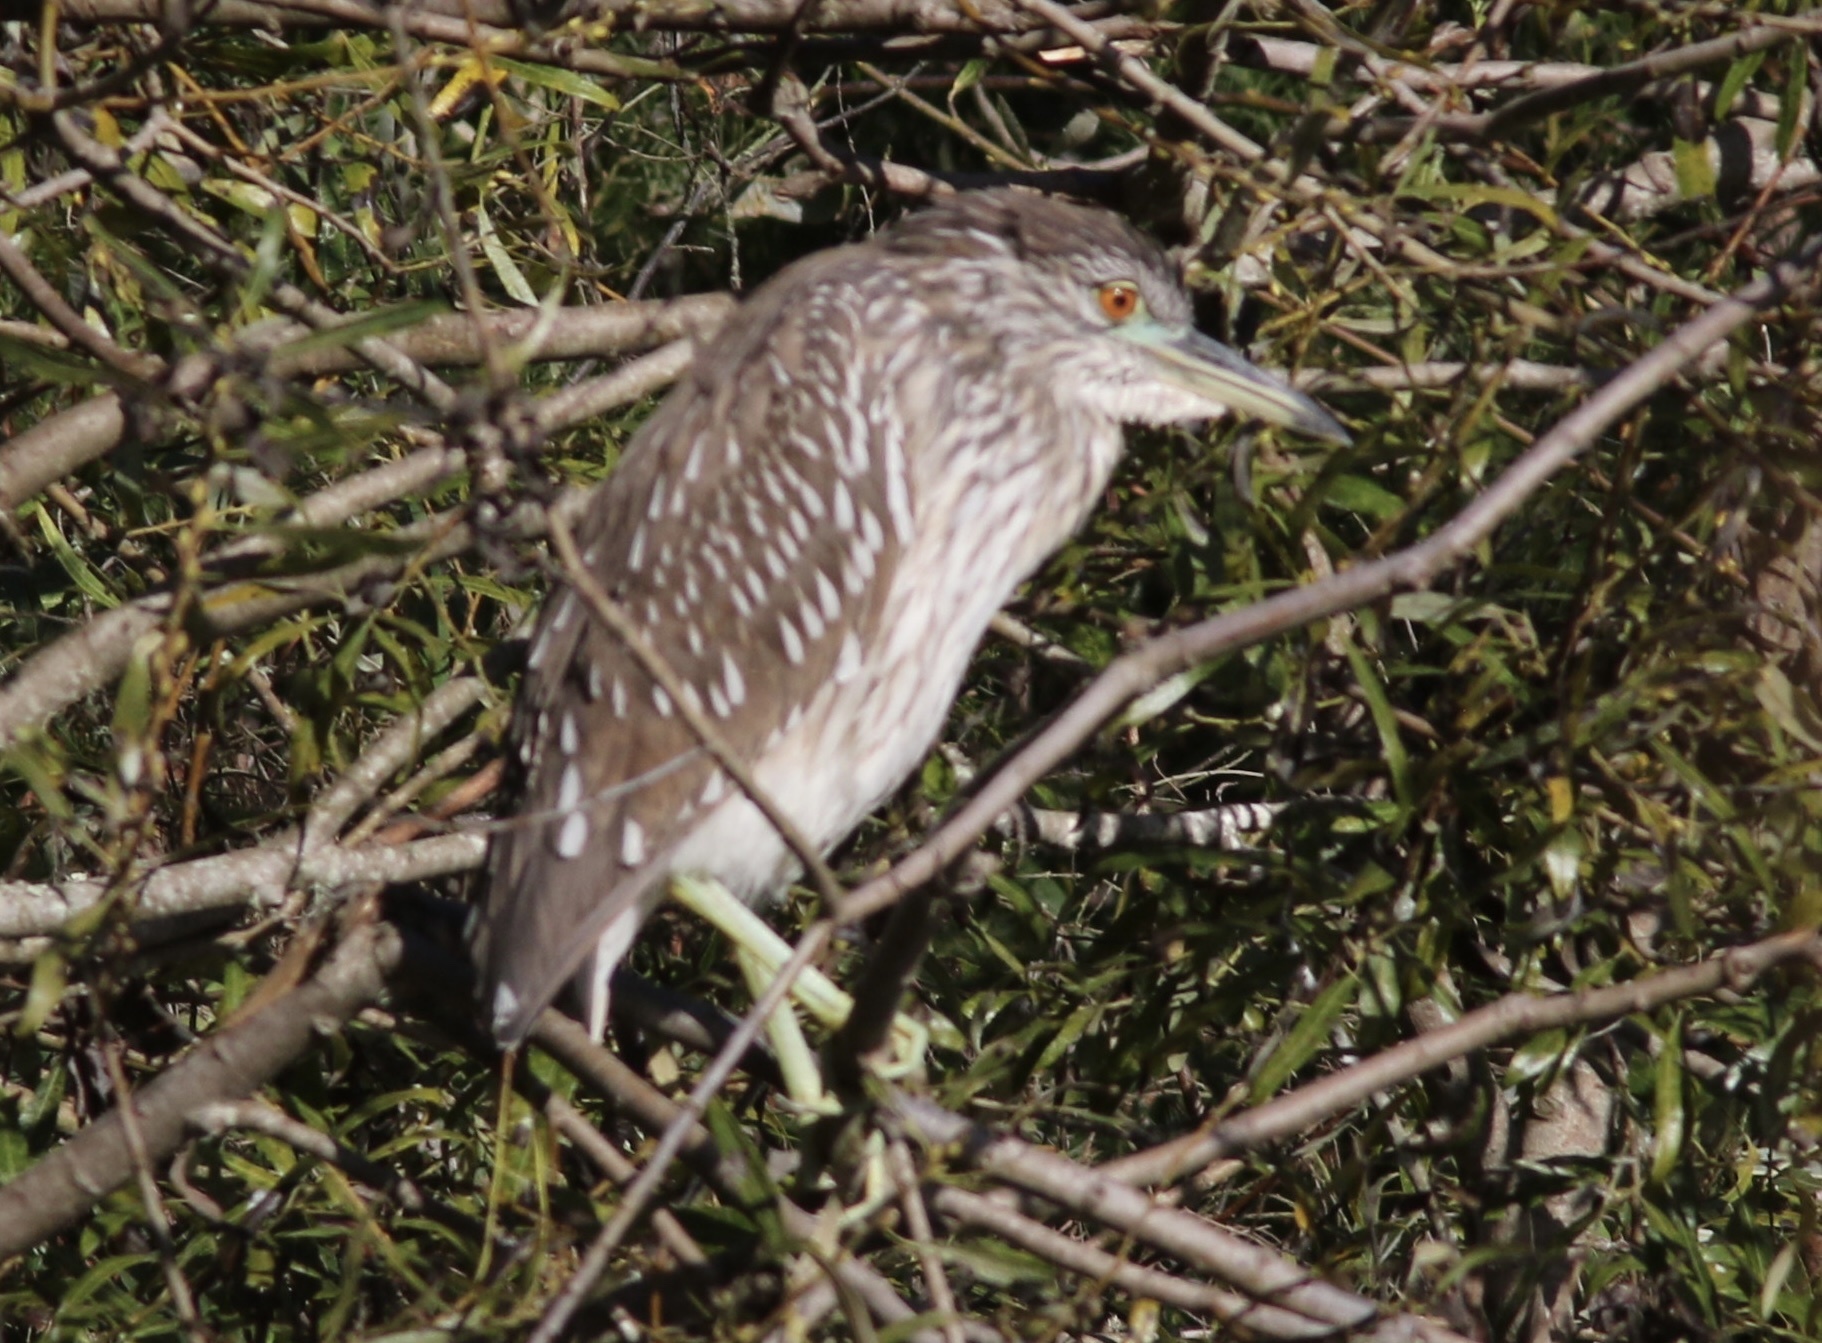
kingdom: Animalia
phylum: Chordata
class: Aves
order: Pelecaniformes
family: Ardeidae
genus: Nycticorax
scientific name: Nycticorax nycticorax
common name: Black-crowned night heron
